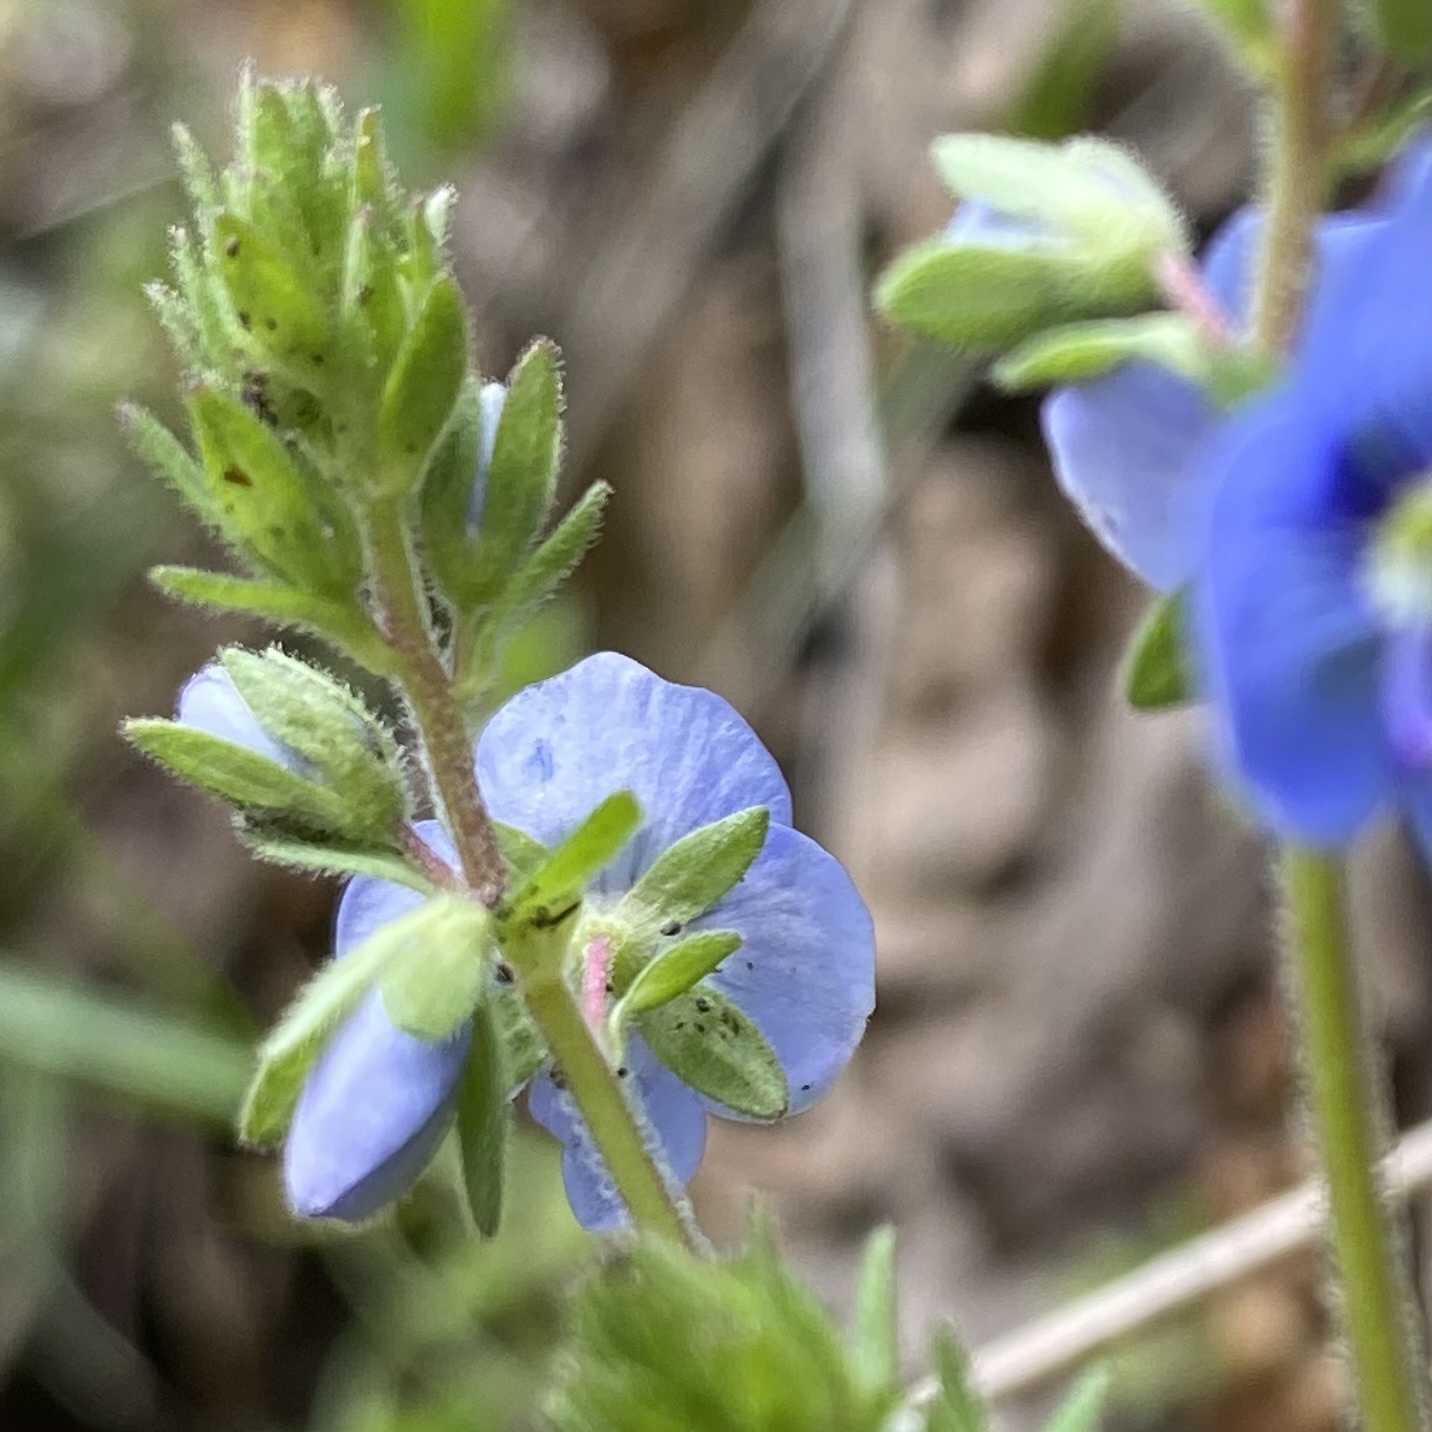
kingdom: Plantae
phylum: Tracheophyta
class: Magnoliopsida
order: Lamiales
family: Plantaginaceae
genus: Veronica
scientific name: Veronica chamaedrys
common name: Germander speedwell
